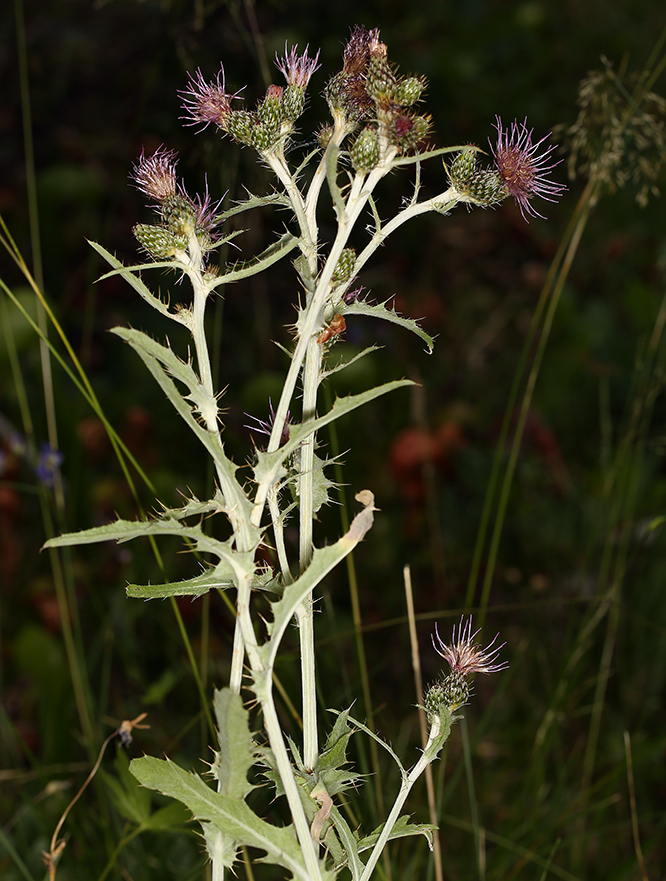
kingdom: Plantae
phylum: Tracheophyta
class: Magnoliopsida
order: Asterales
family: Asteraceae
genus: Cirsium
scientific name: Cirsium douglasii
